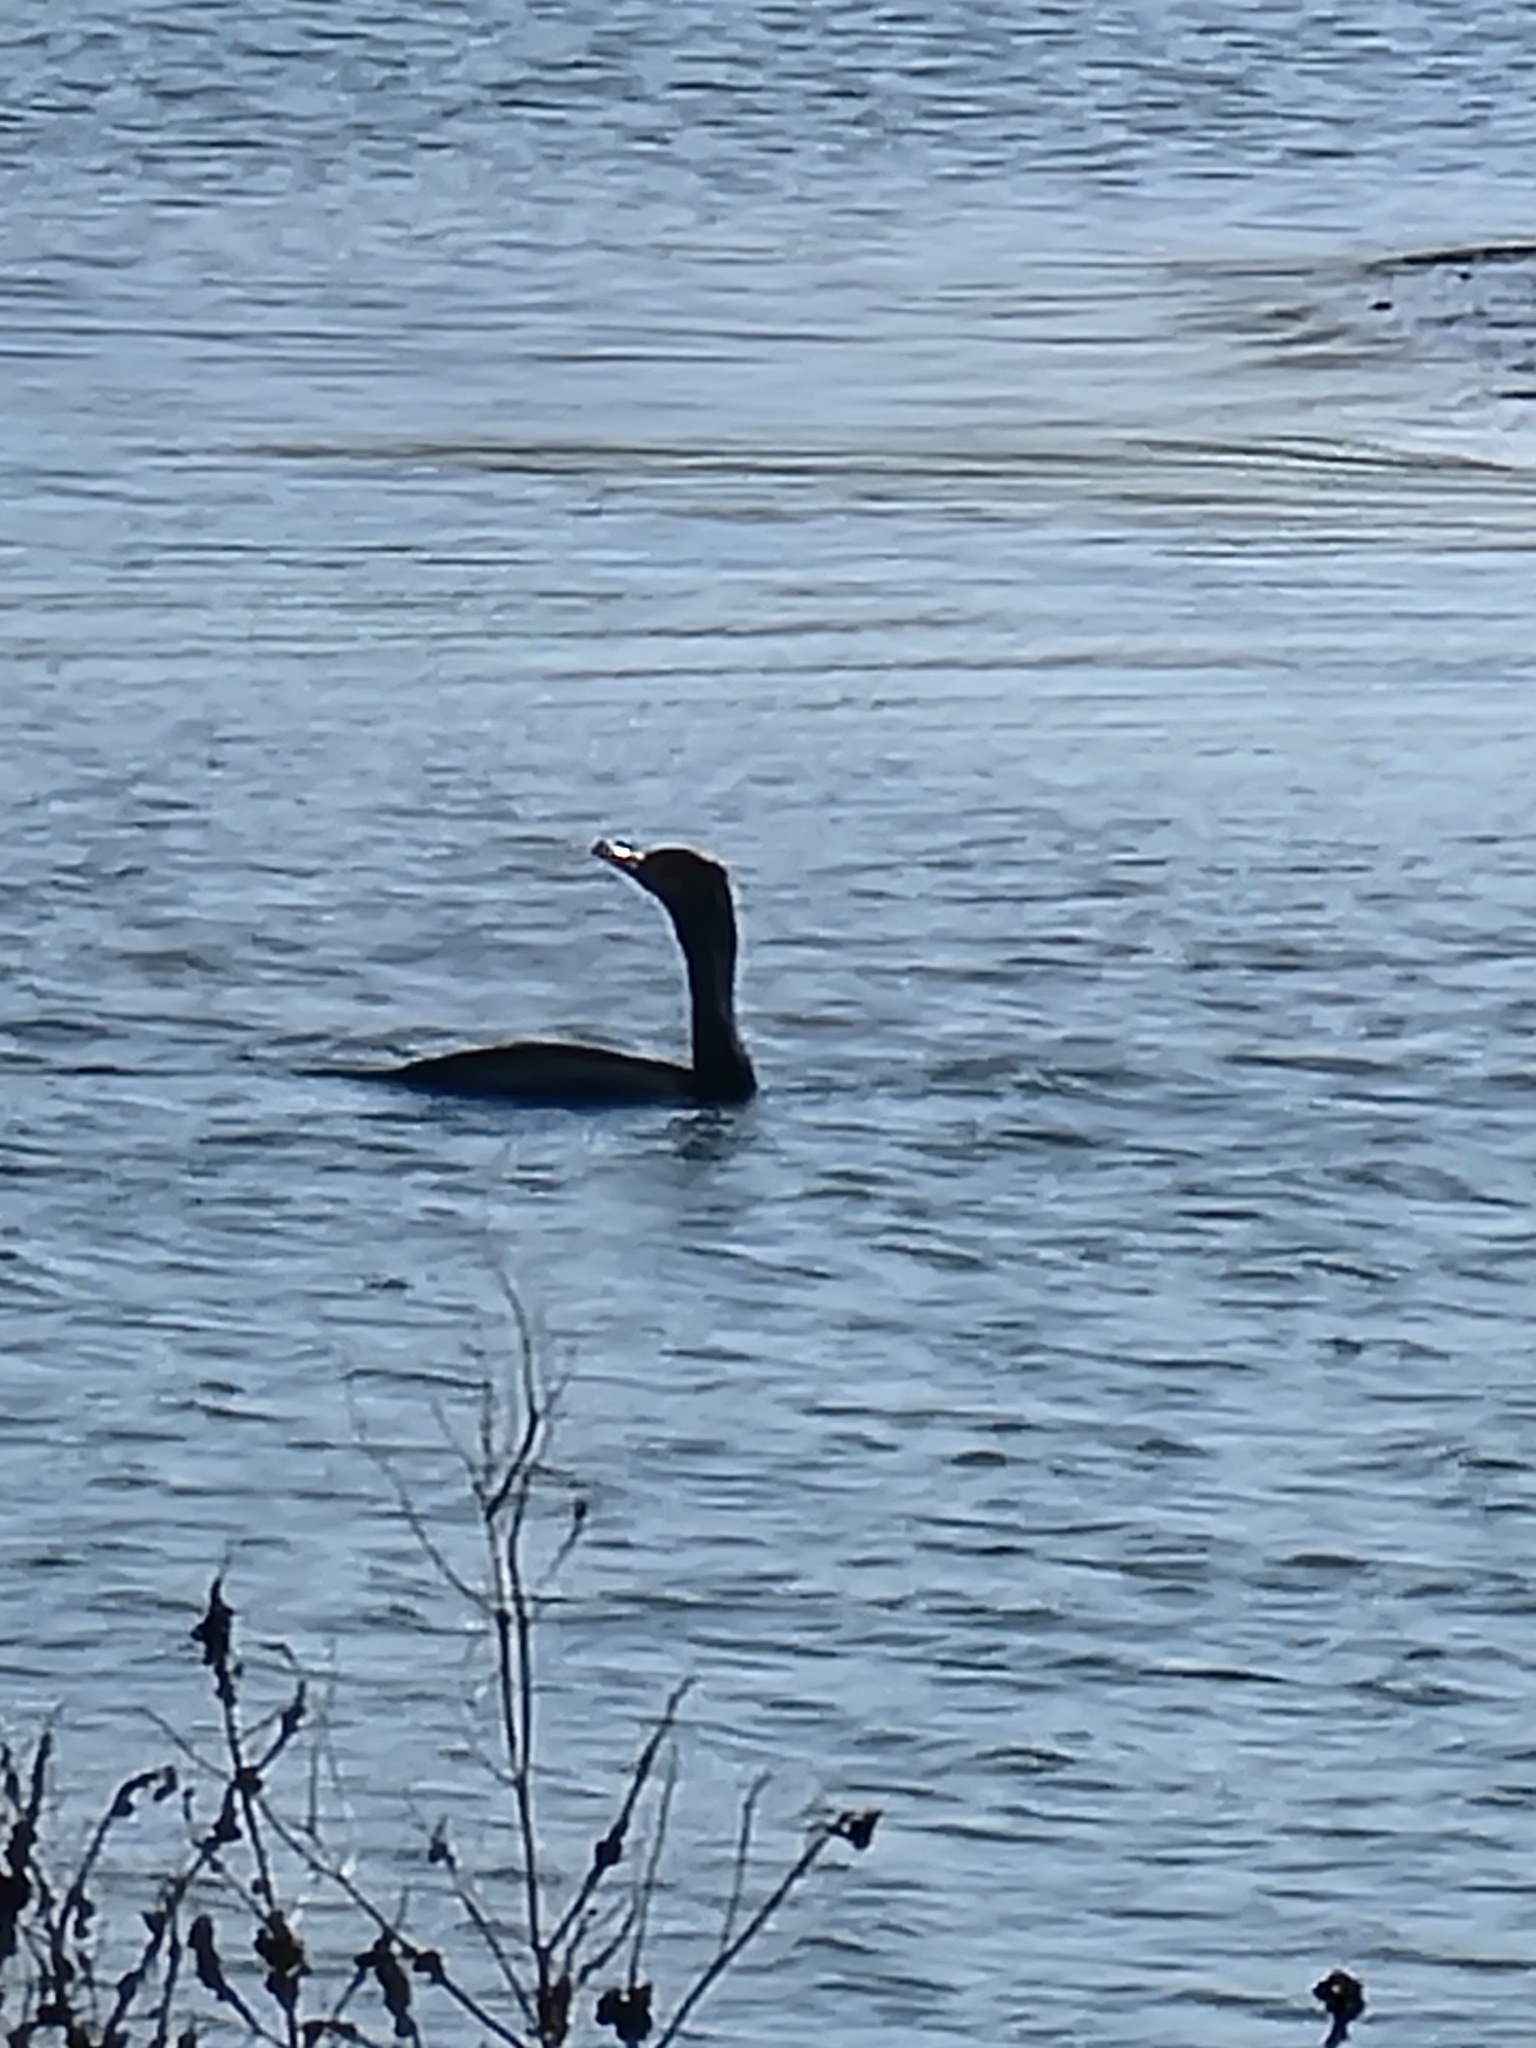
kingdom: Animalia
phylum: Chordata
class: Aves
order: Suliformes
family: Phalacrocoracidae
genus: Phalacrocorax
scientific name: Phalacrocorax auritus
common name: Double-crested cormorant
